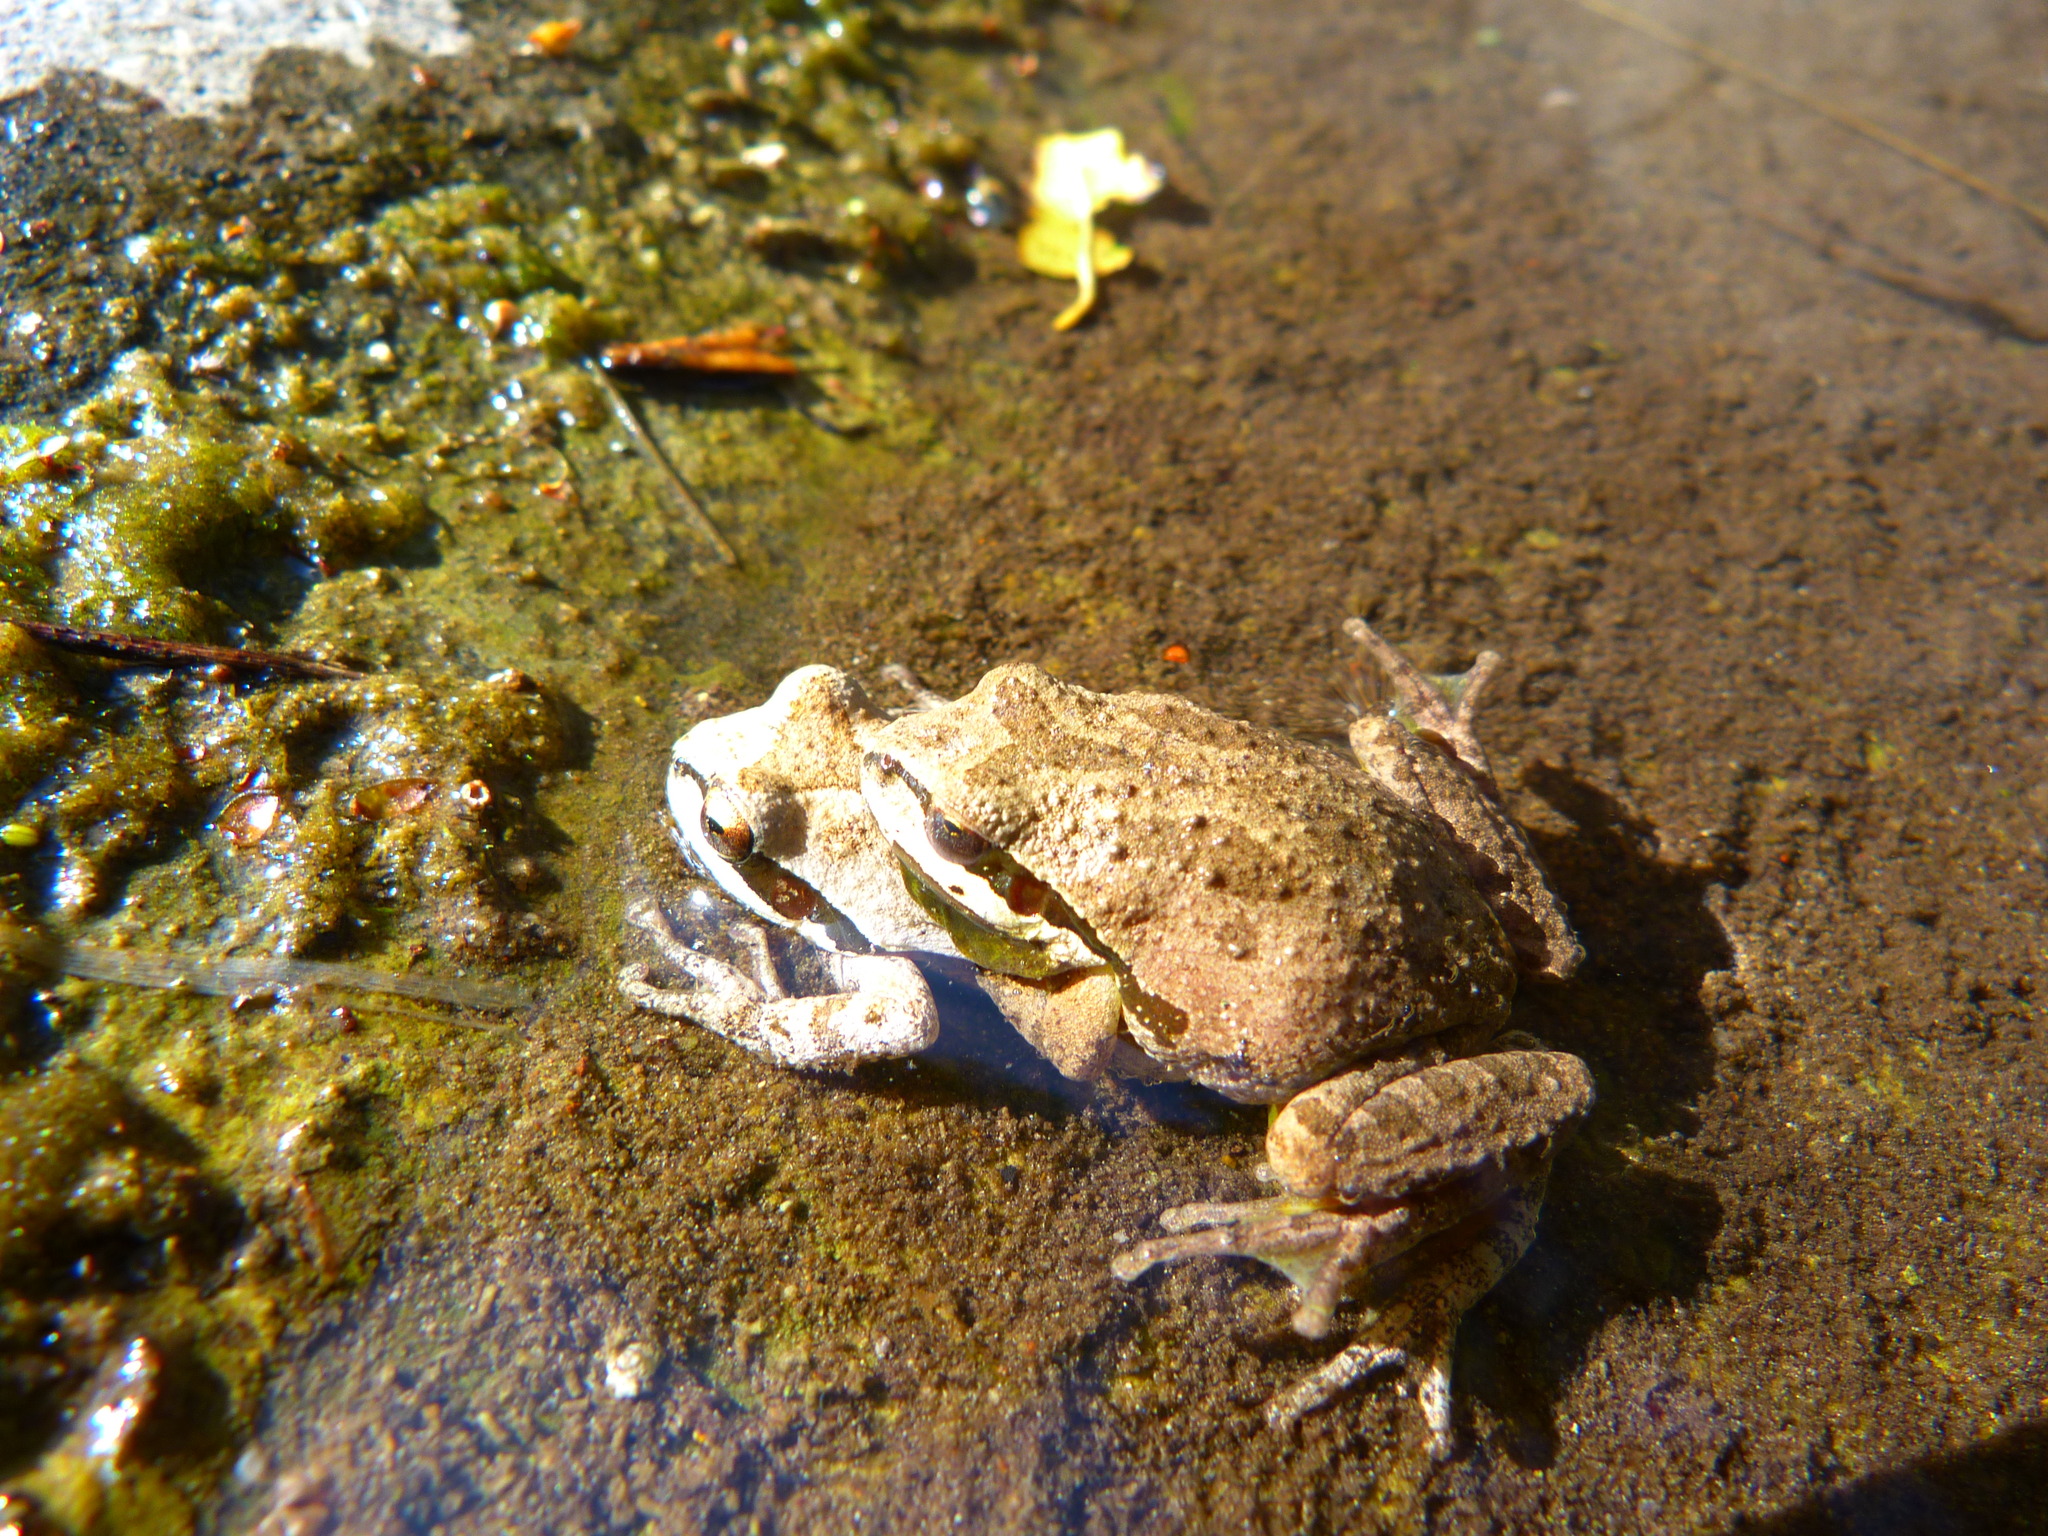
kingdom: Animalia
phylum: Chordata
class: Amphibia
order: Anura
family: Hylidae
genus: Pseudacris
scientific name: Pseudacris regilla
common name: Pacific chorus frog
